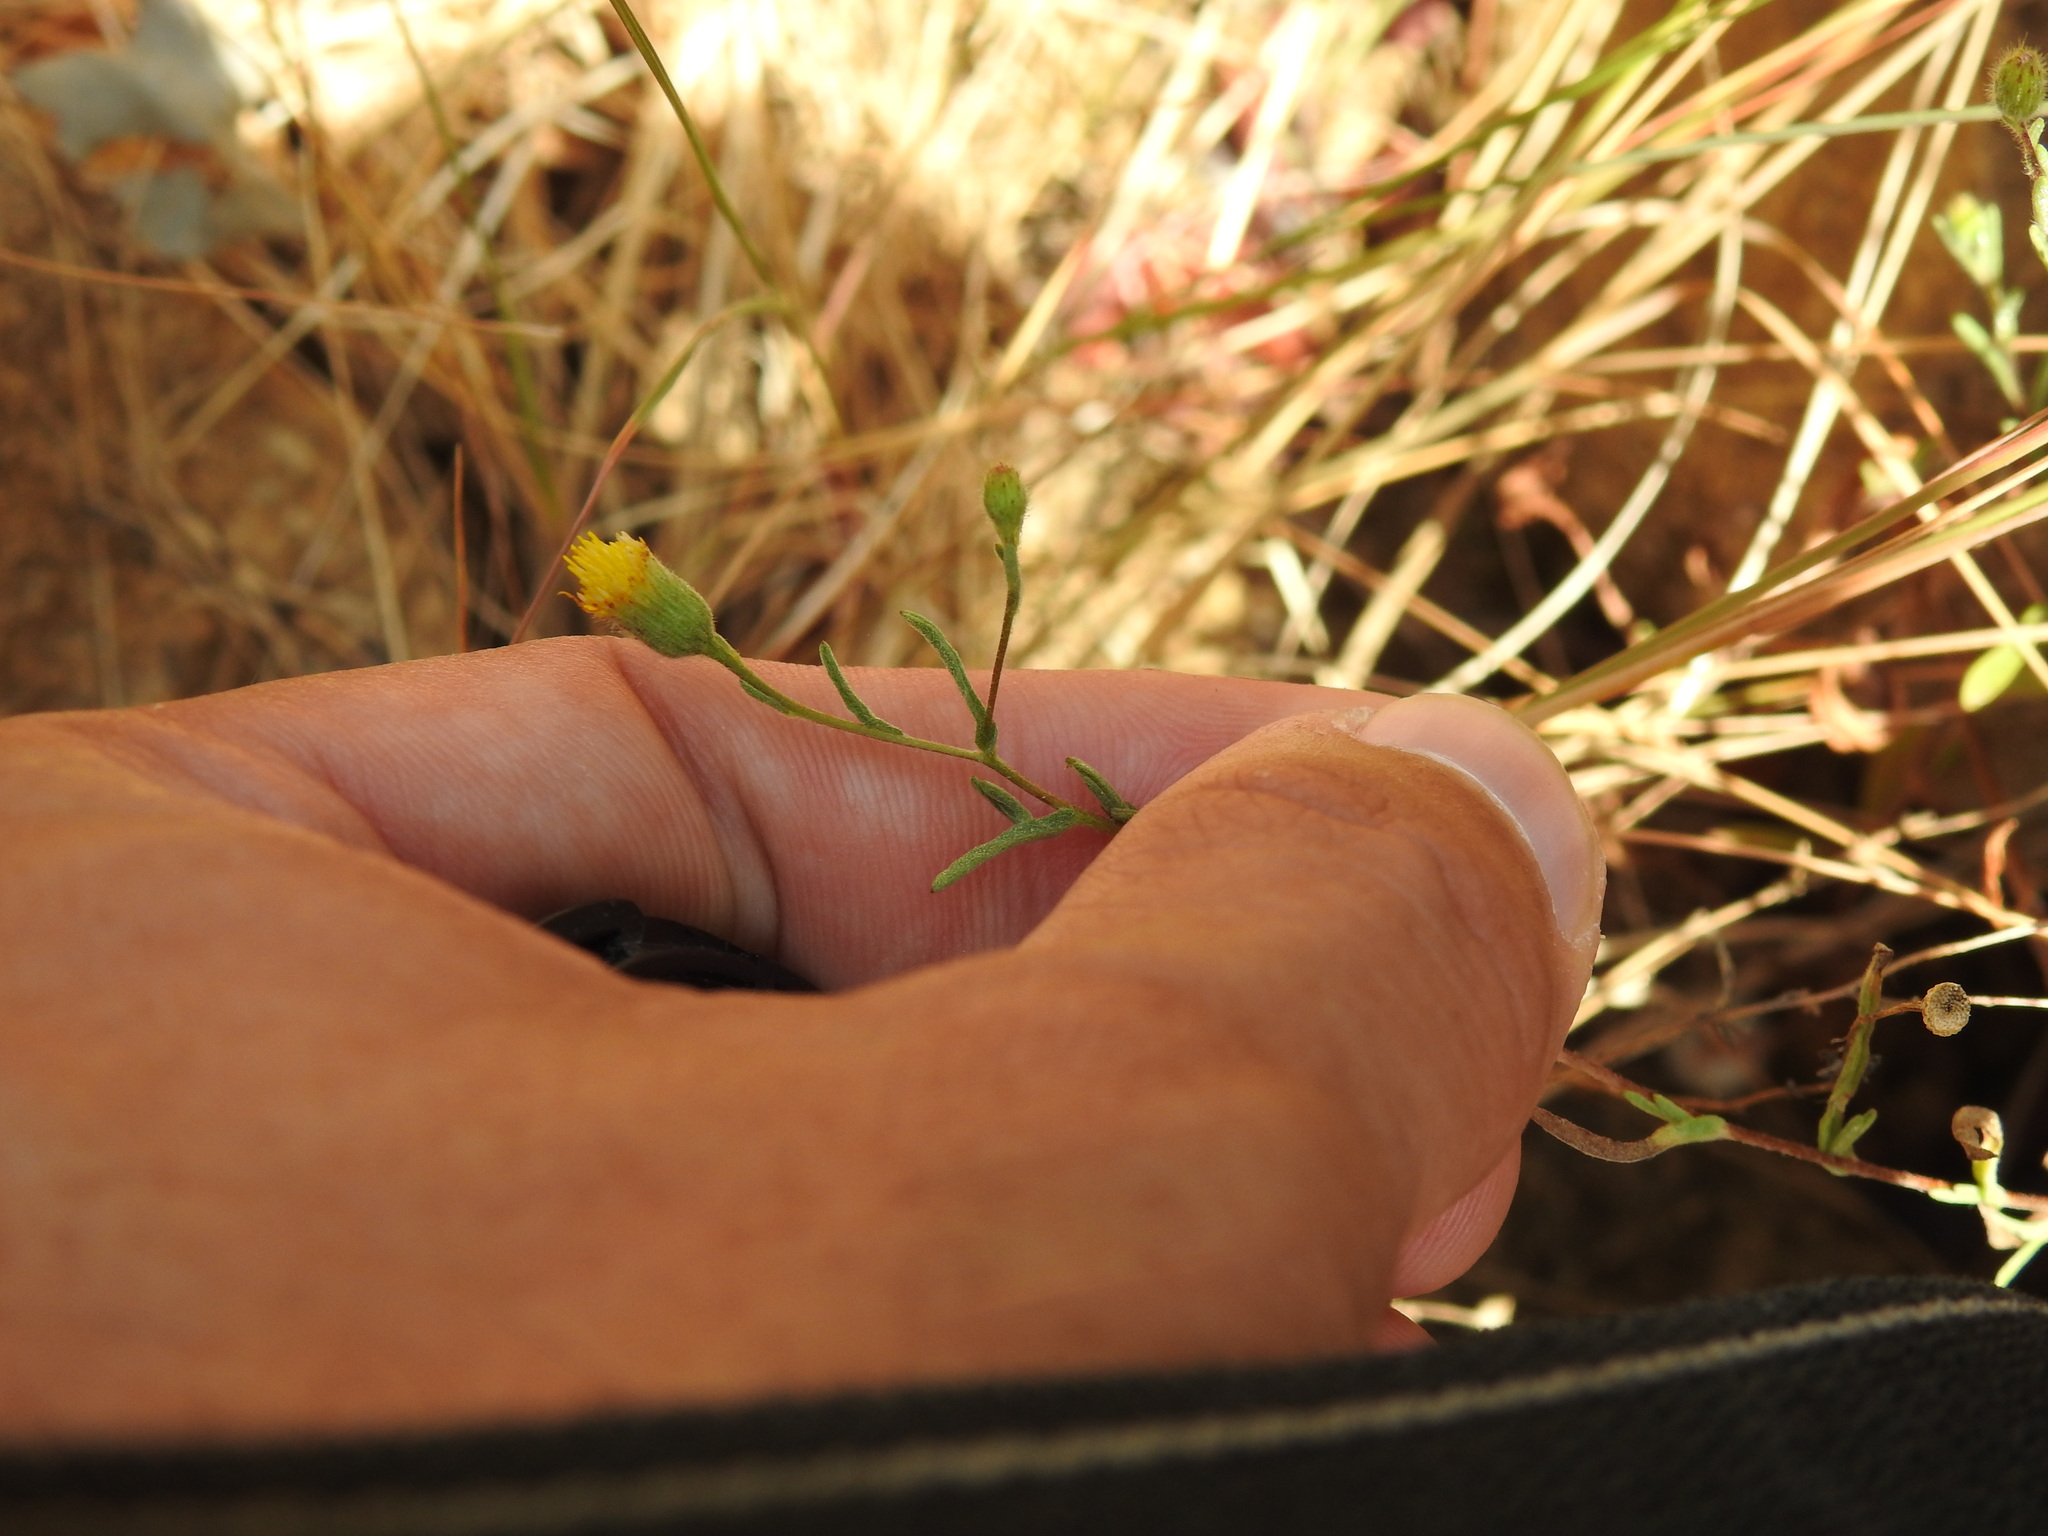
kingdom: Plantae
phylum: Tracheophyta
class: Magnoliopsida
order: Asterales
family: Asteraceae
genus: Pulicaria
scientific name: Pulicaria paludosa
